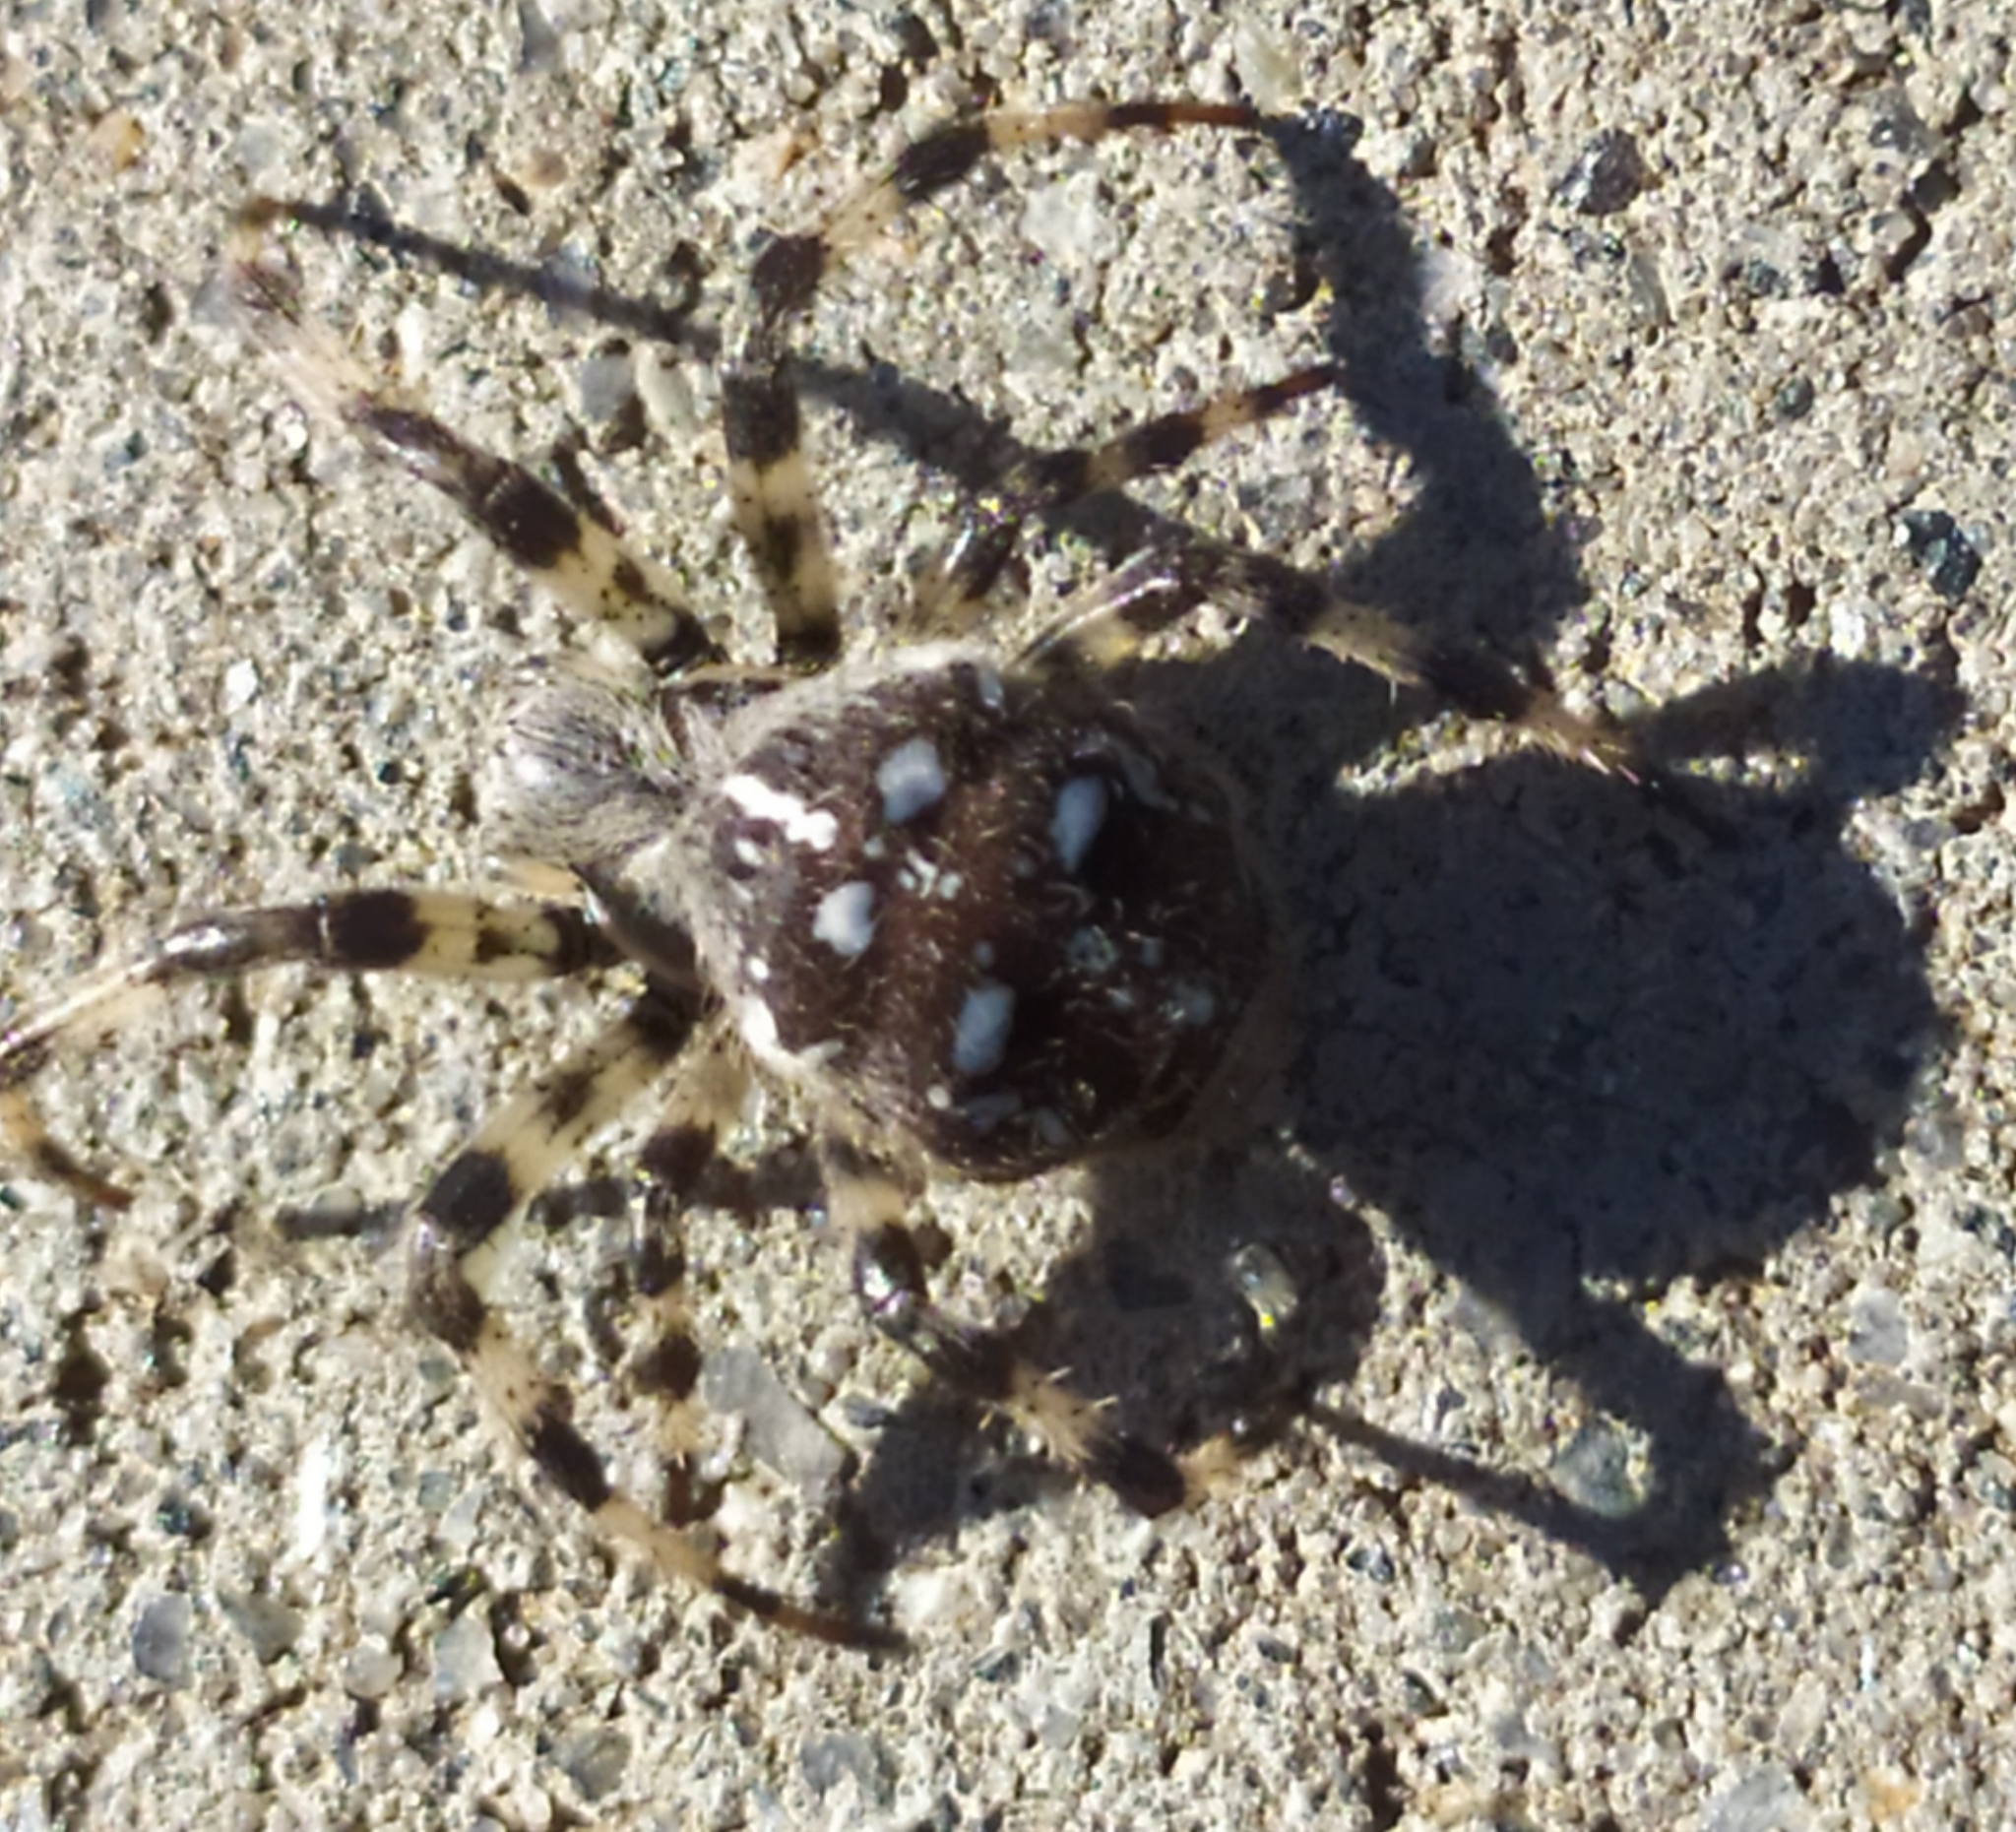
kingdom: Animalia
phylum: Arthropoda
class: Arachnida
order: Araneae
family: Araneidae
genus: Araneus
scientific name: Araneus quadratus
